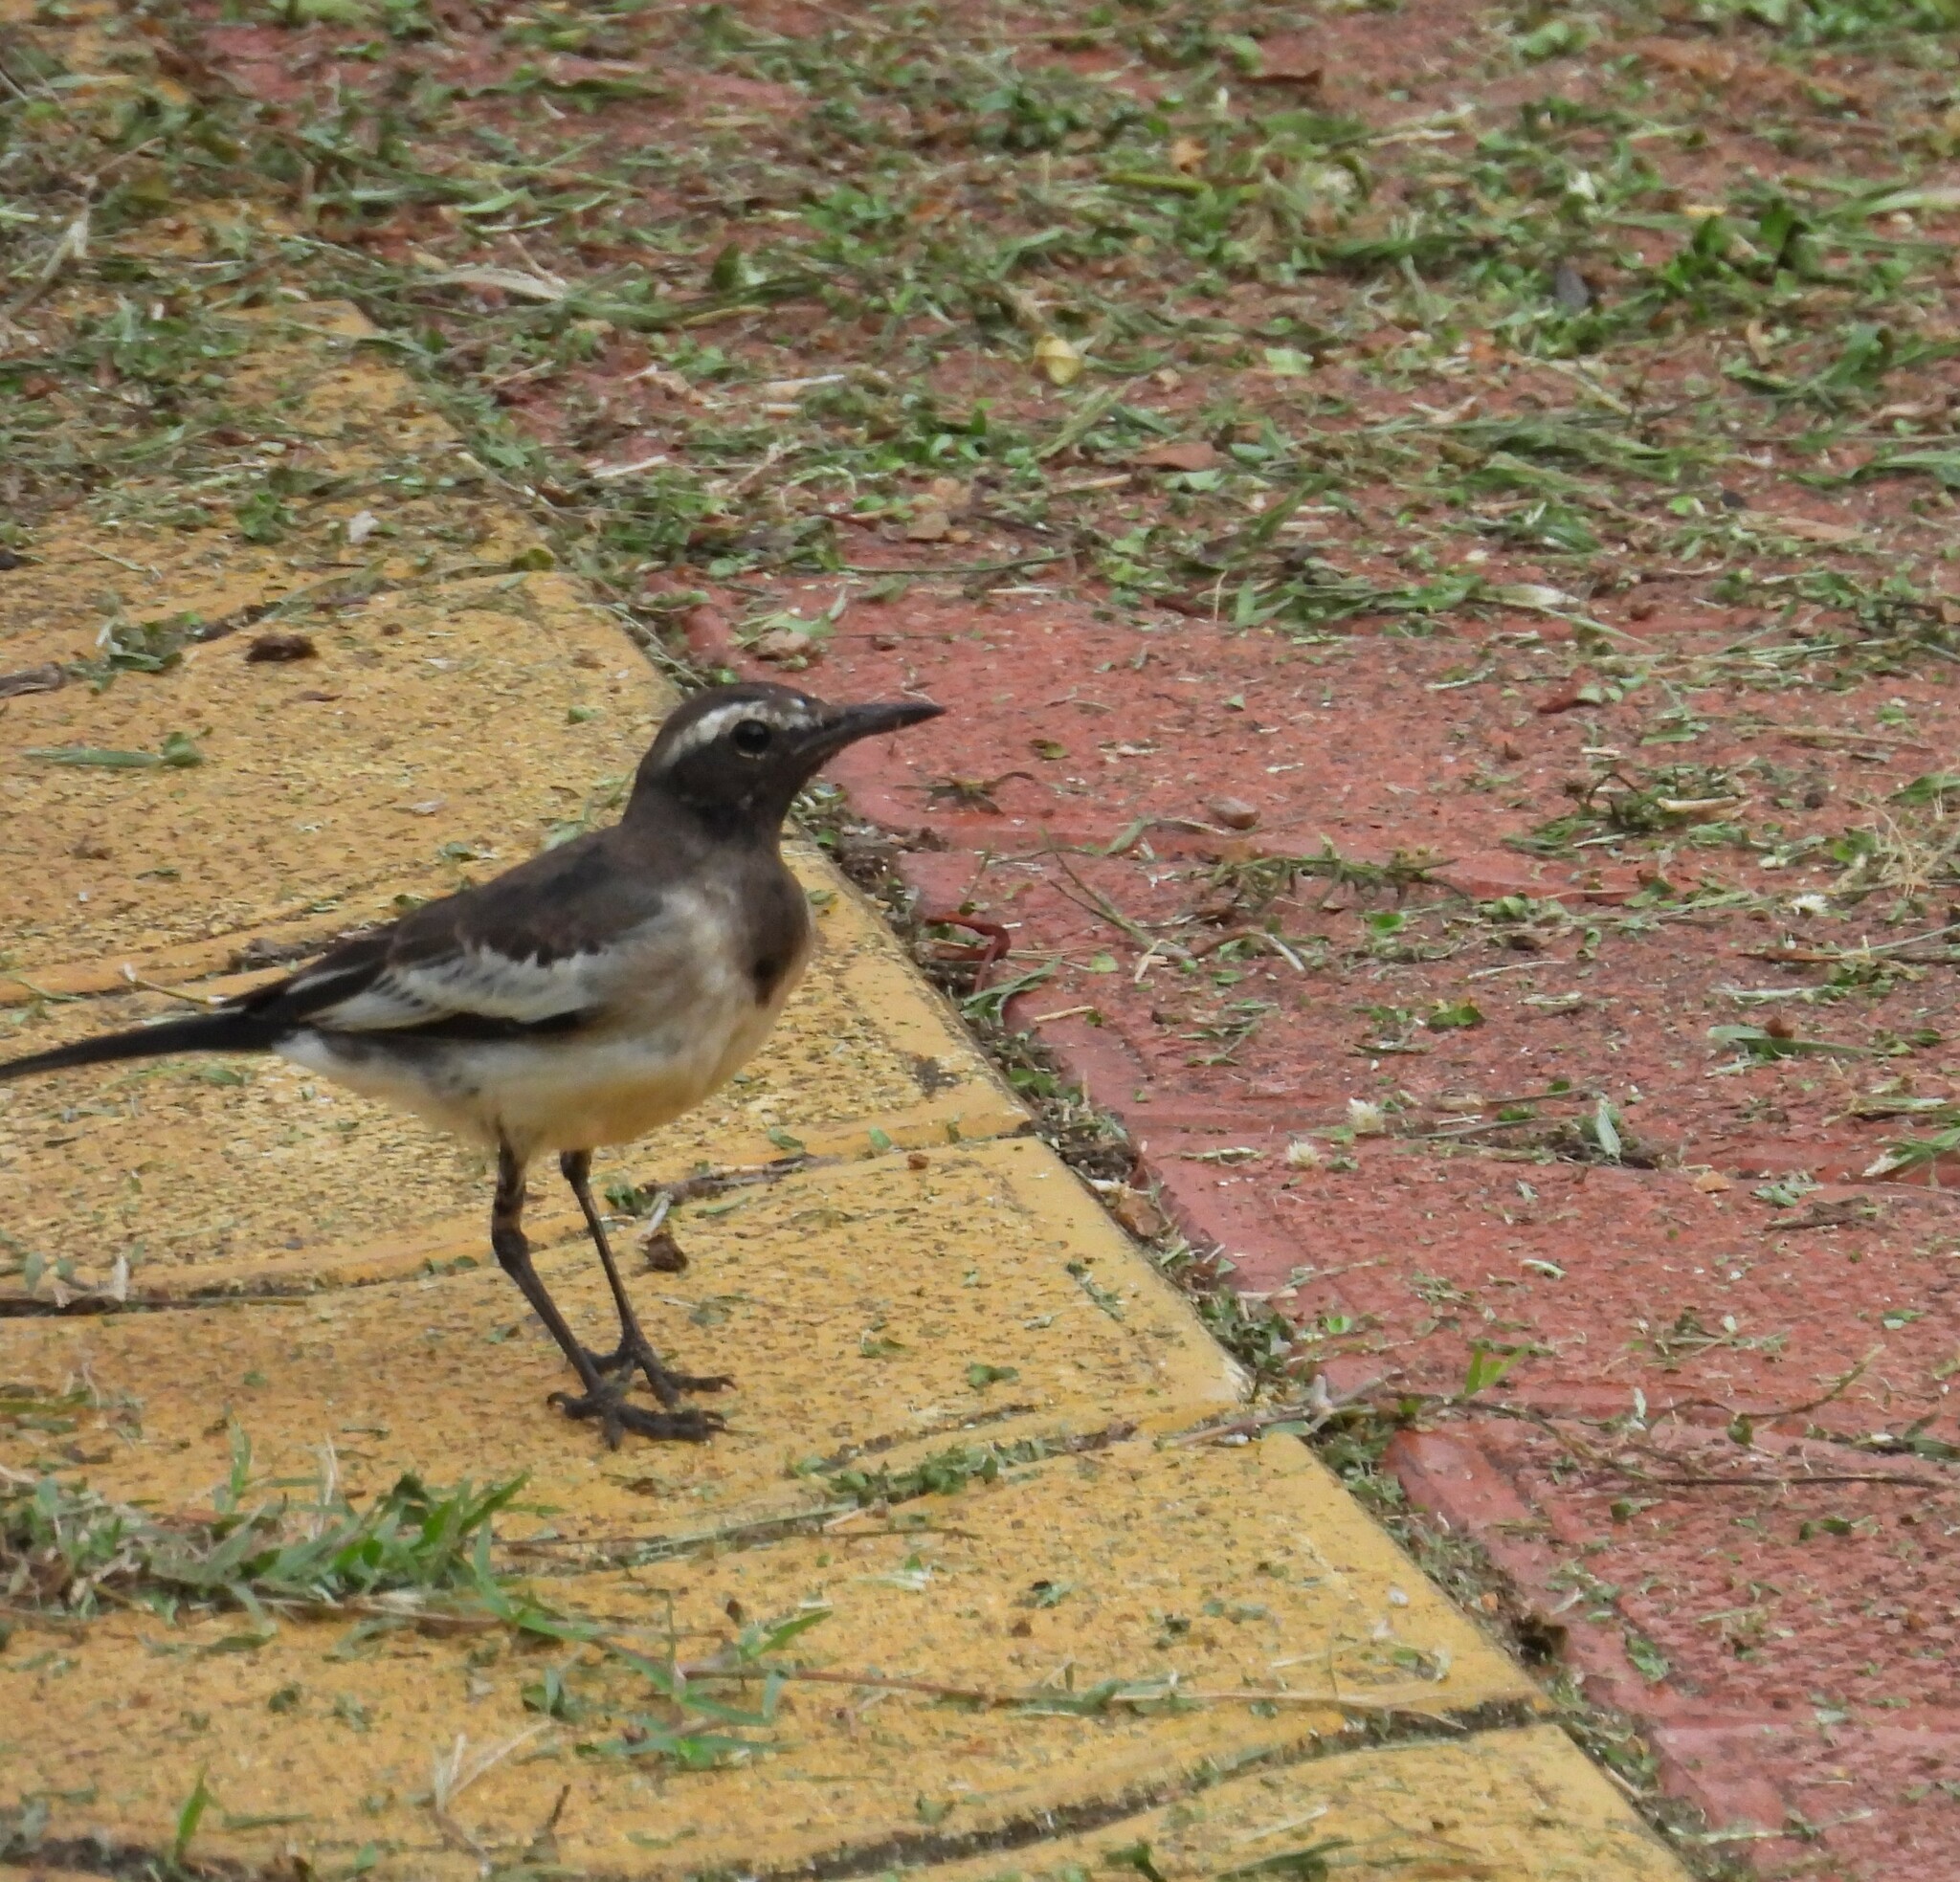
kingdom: Animalia
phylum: Chordata
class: Aves
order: Passeriformes
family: Motacillidae
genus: Motacilla
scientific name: Motacilla maderaspatensis
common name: White-browed wagtail
